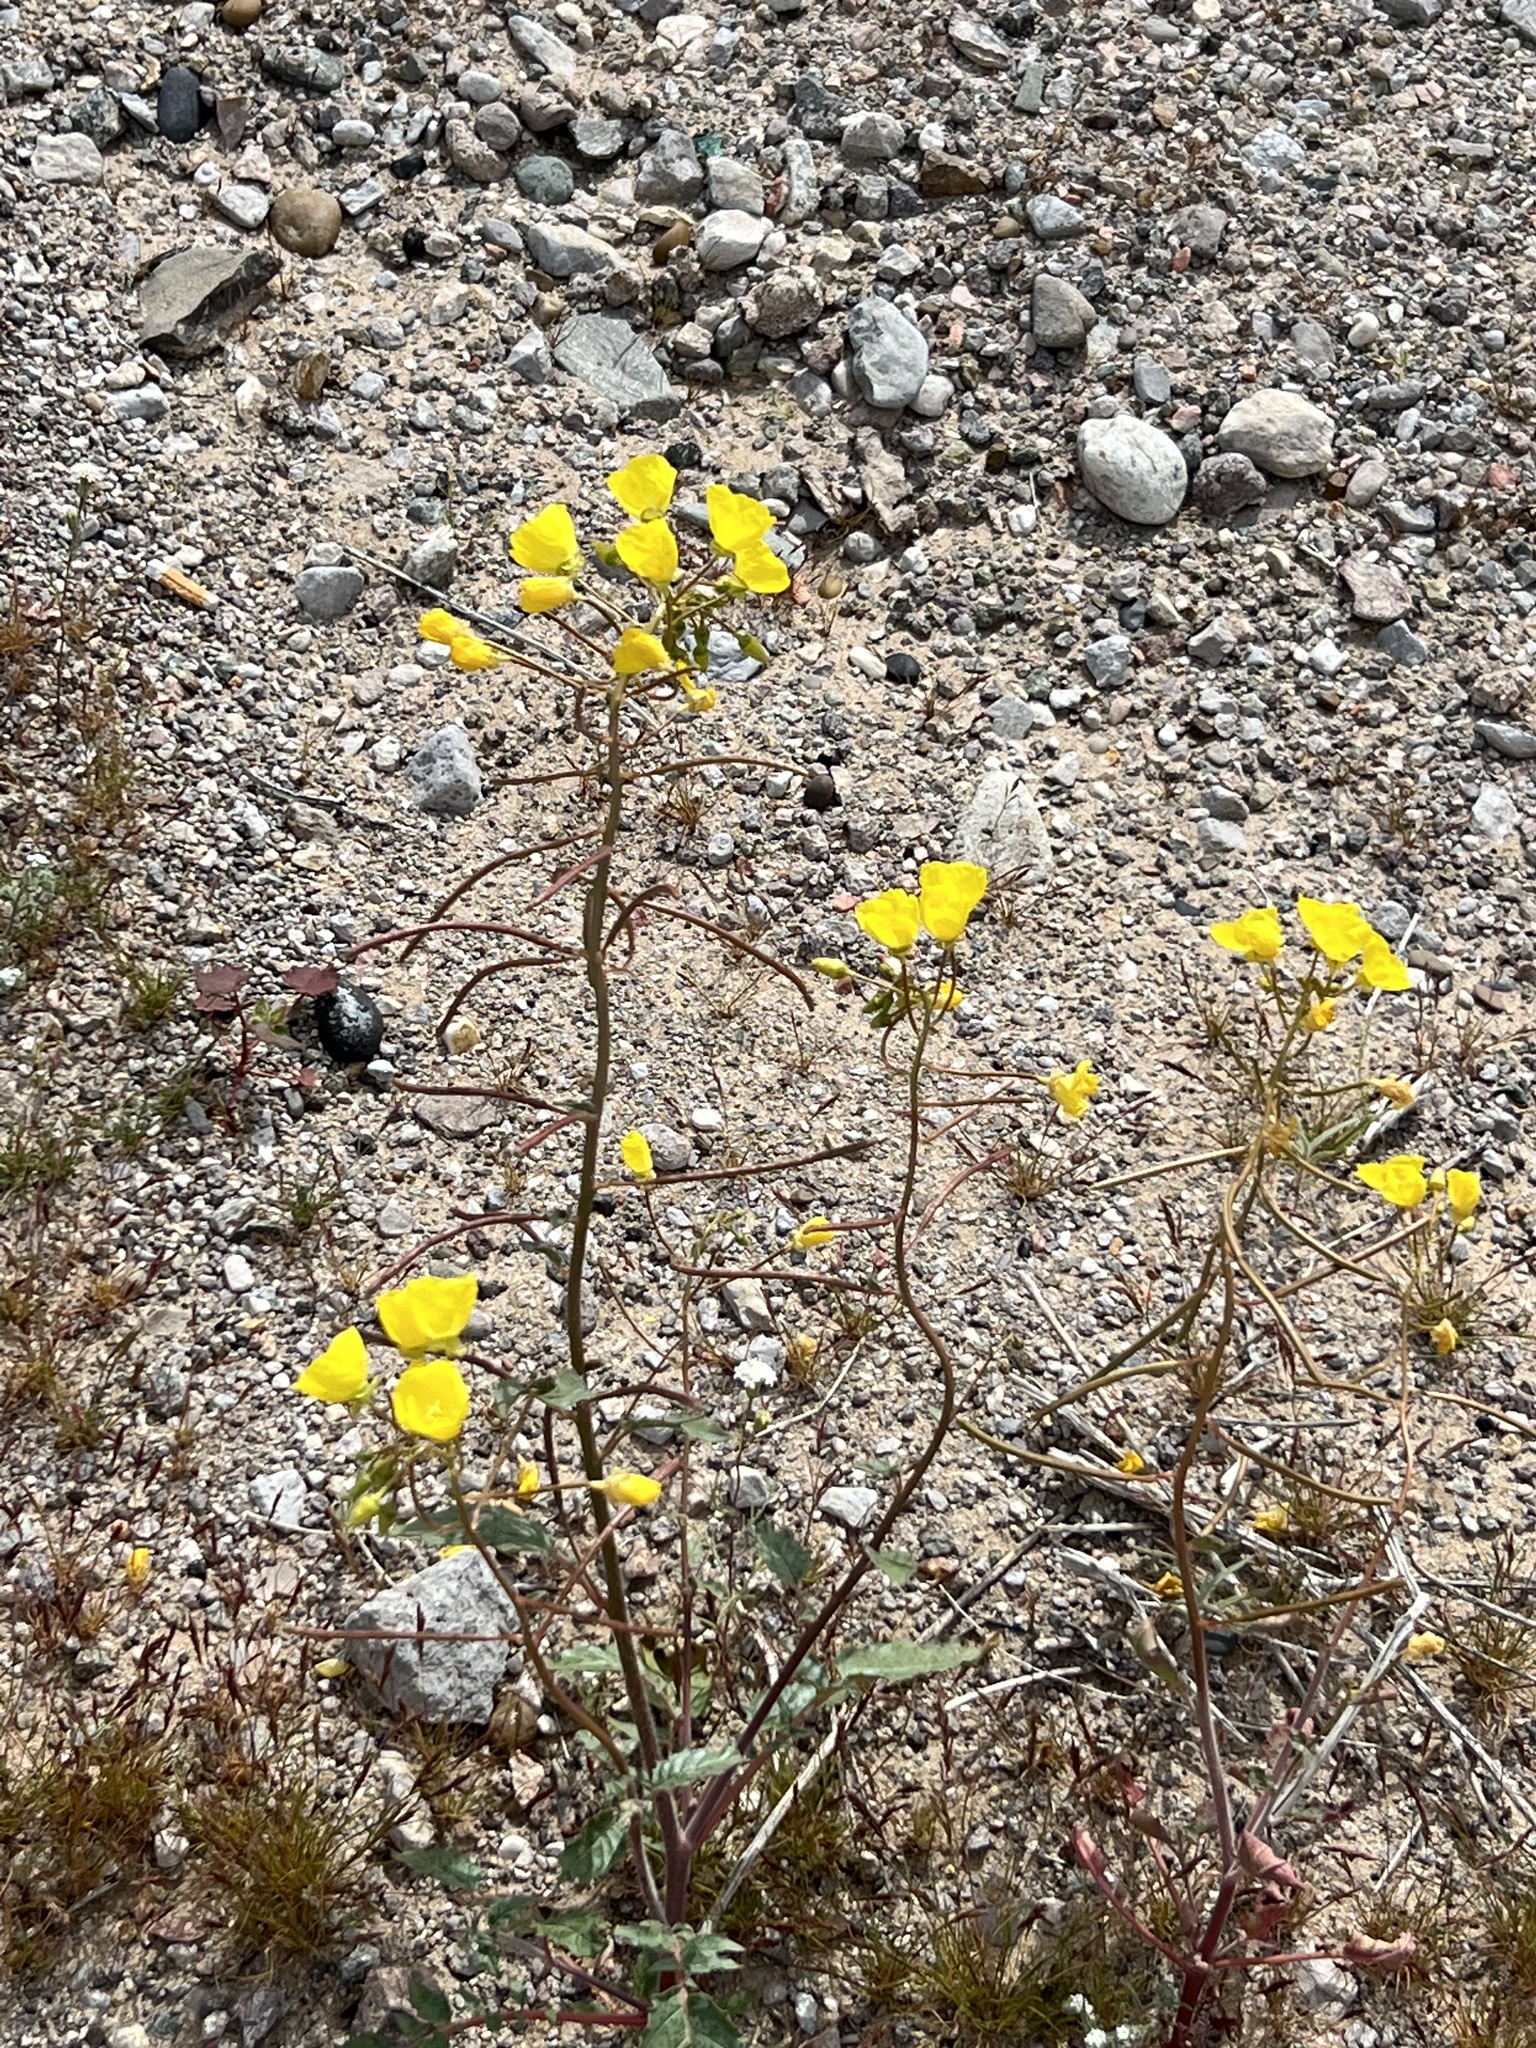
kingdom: Plantae
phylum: Tracheophyta
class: Magnoliopsida
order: Myrtales
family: Onagraceae
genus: Chylismia
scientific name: Chylismia brevipes
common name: Yellow cups
